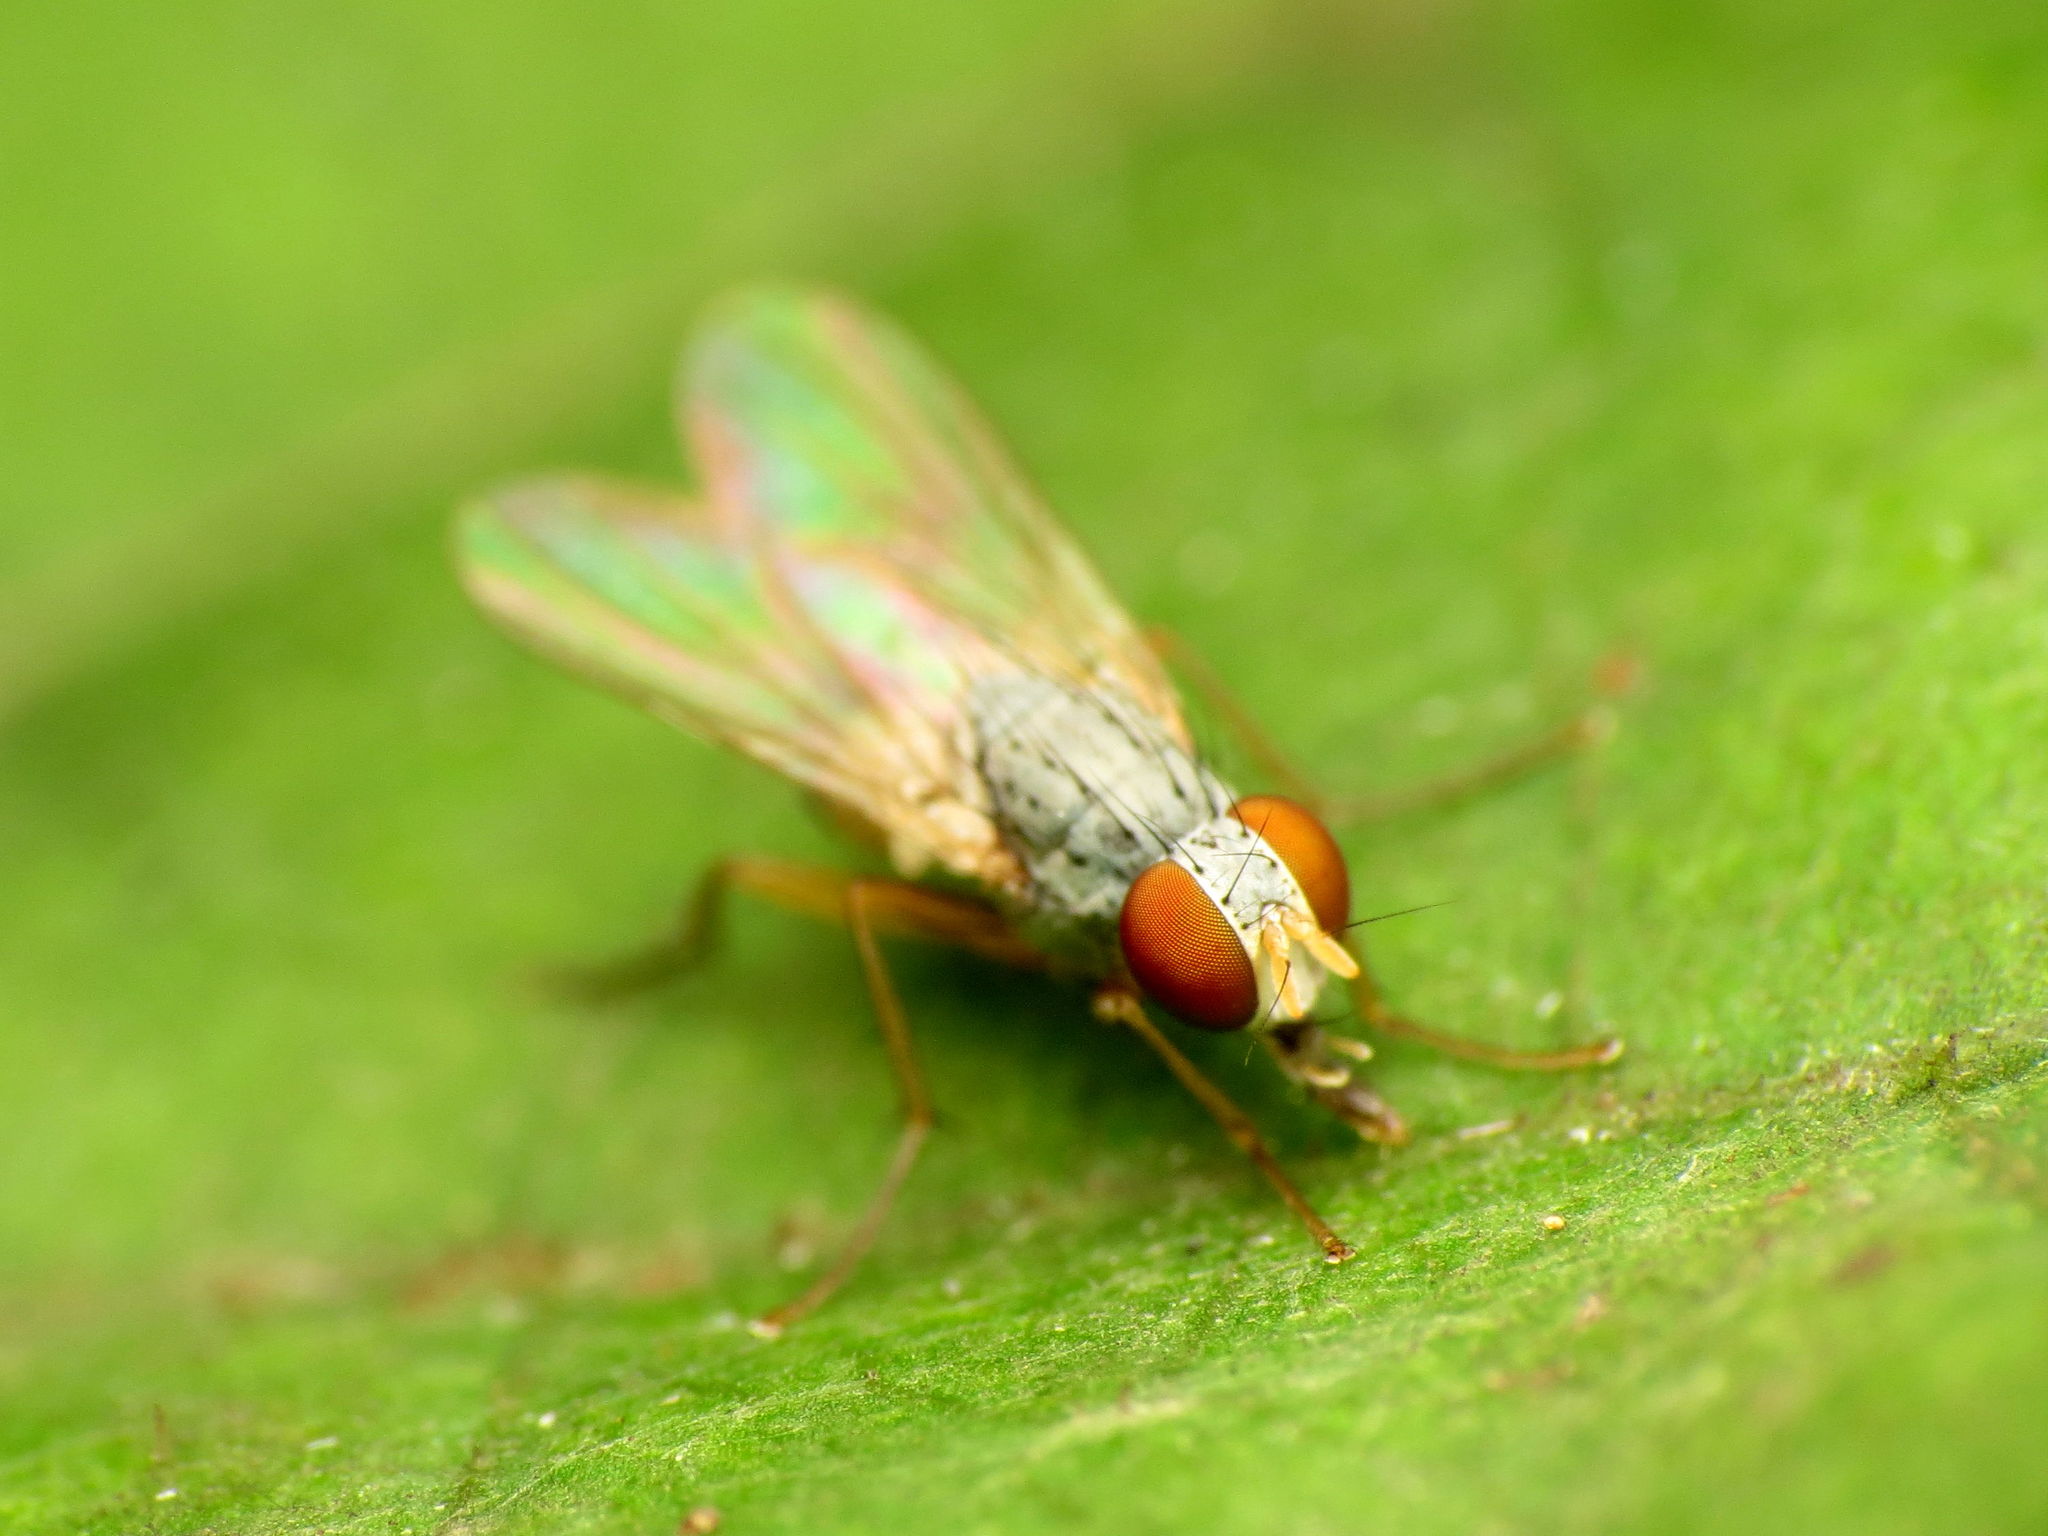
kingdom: Animalia
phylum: Arthropoda
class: Insecta
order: Diptera
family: Muscidae
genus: Neodexiopsis
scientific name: Neodexiopsis calopyga
